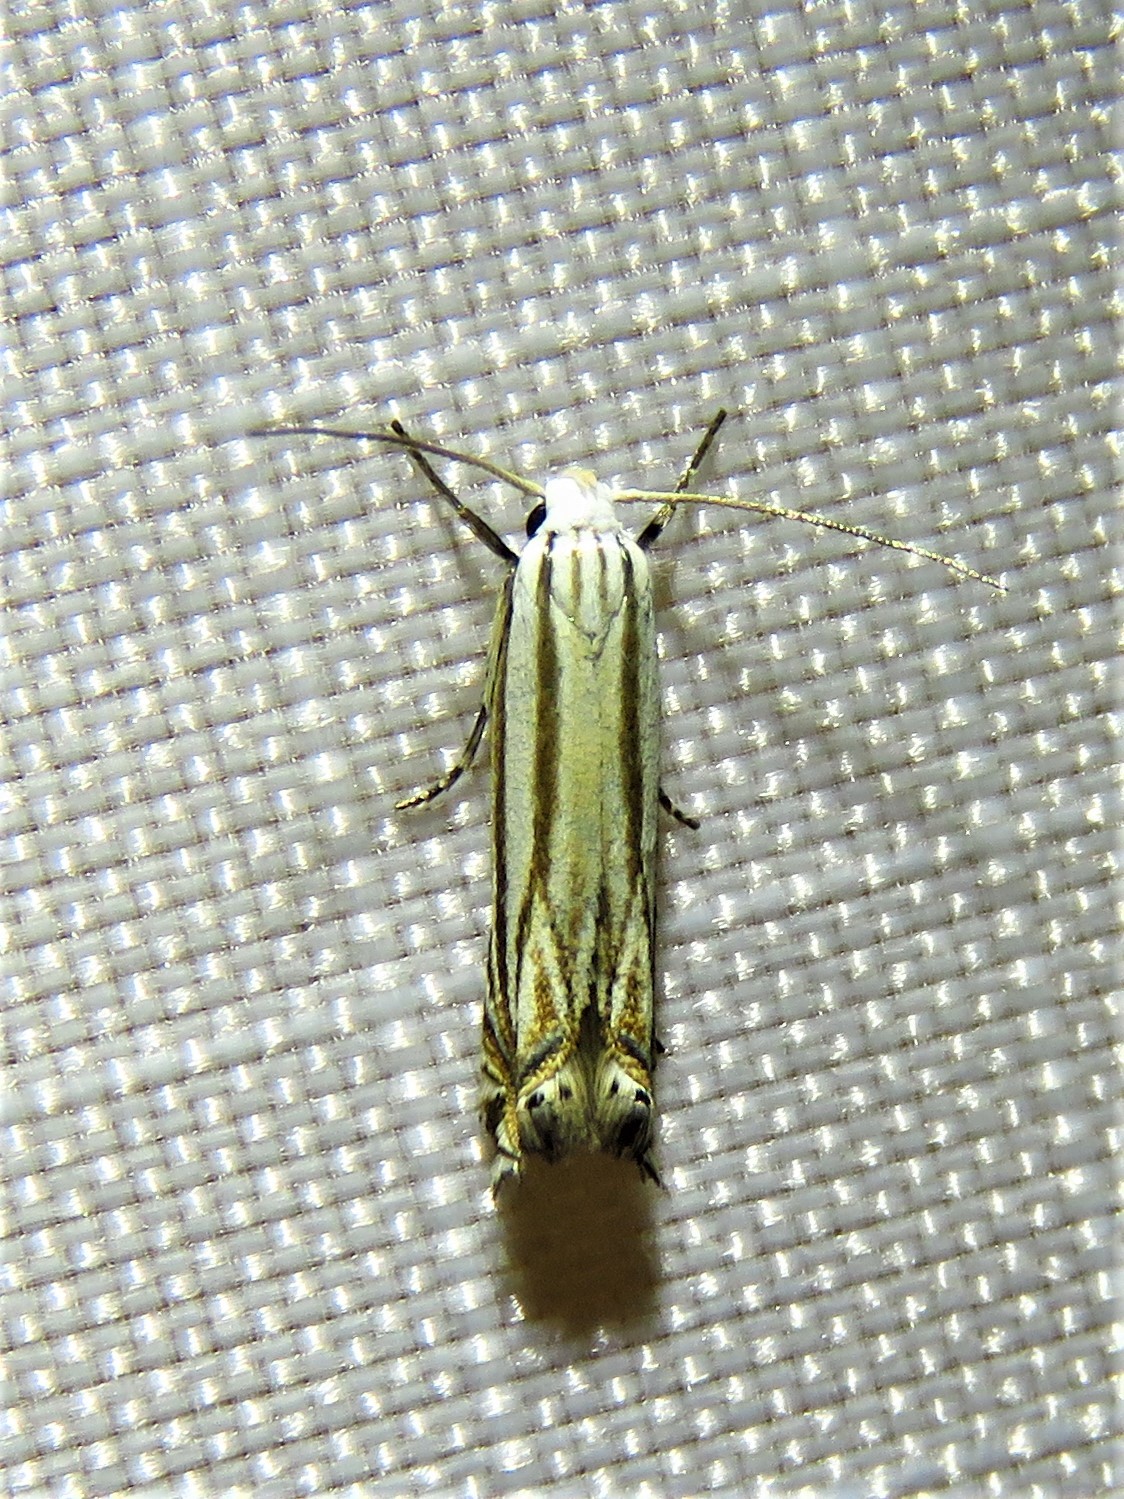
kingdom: Animalia
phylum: Arthropoda
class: Insecta
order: Lepidoptera
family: Gelechiidae
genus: Polyhymno
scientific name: Polyhymno luteostrigella
